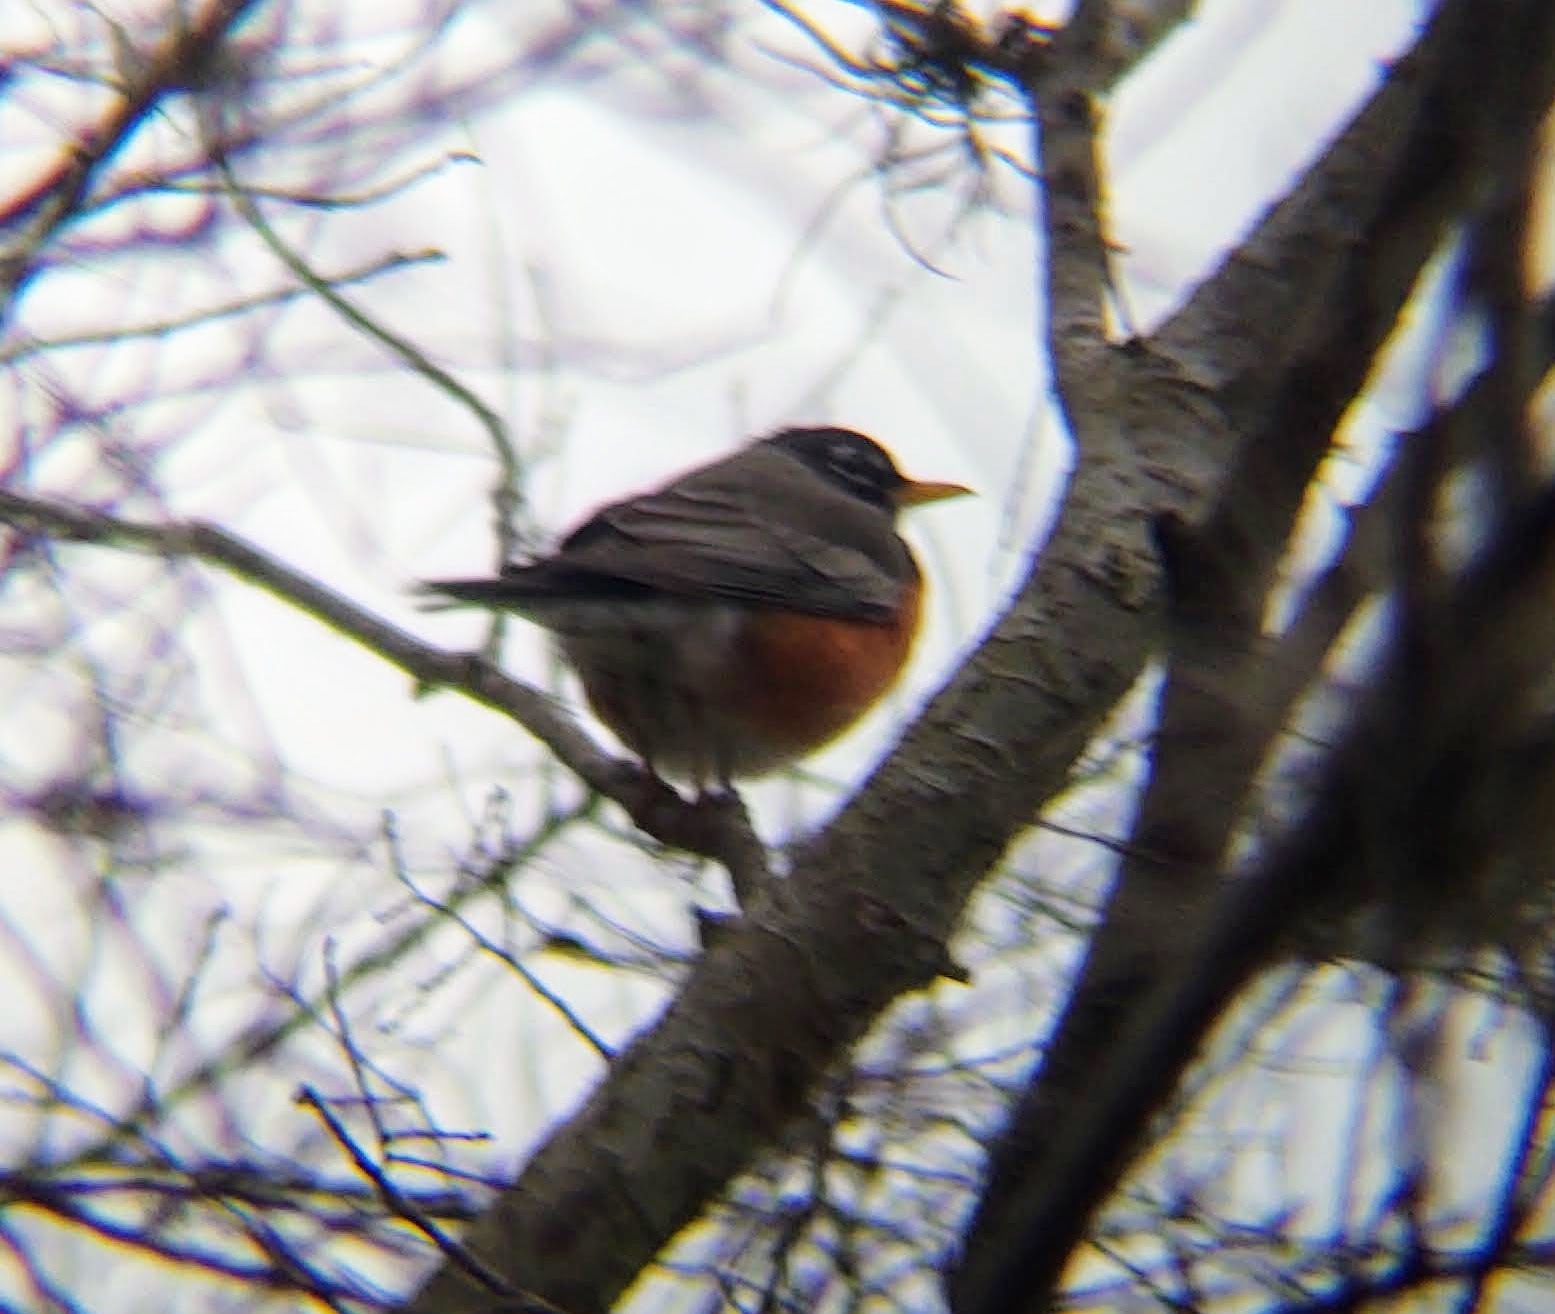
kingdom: Animalia
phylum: Chordata
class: Aves
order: Passeriformes
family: Turdidae
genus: Turdus
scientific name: Turdus migratorius
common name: American robin
